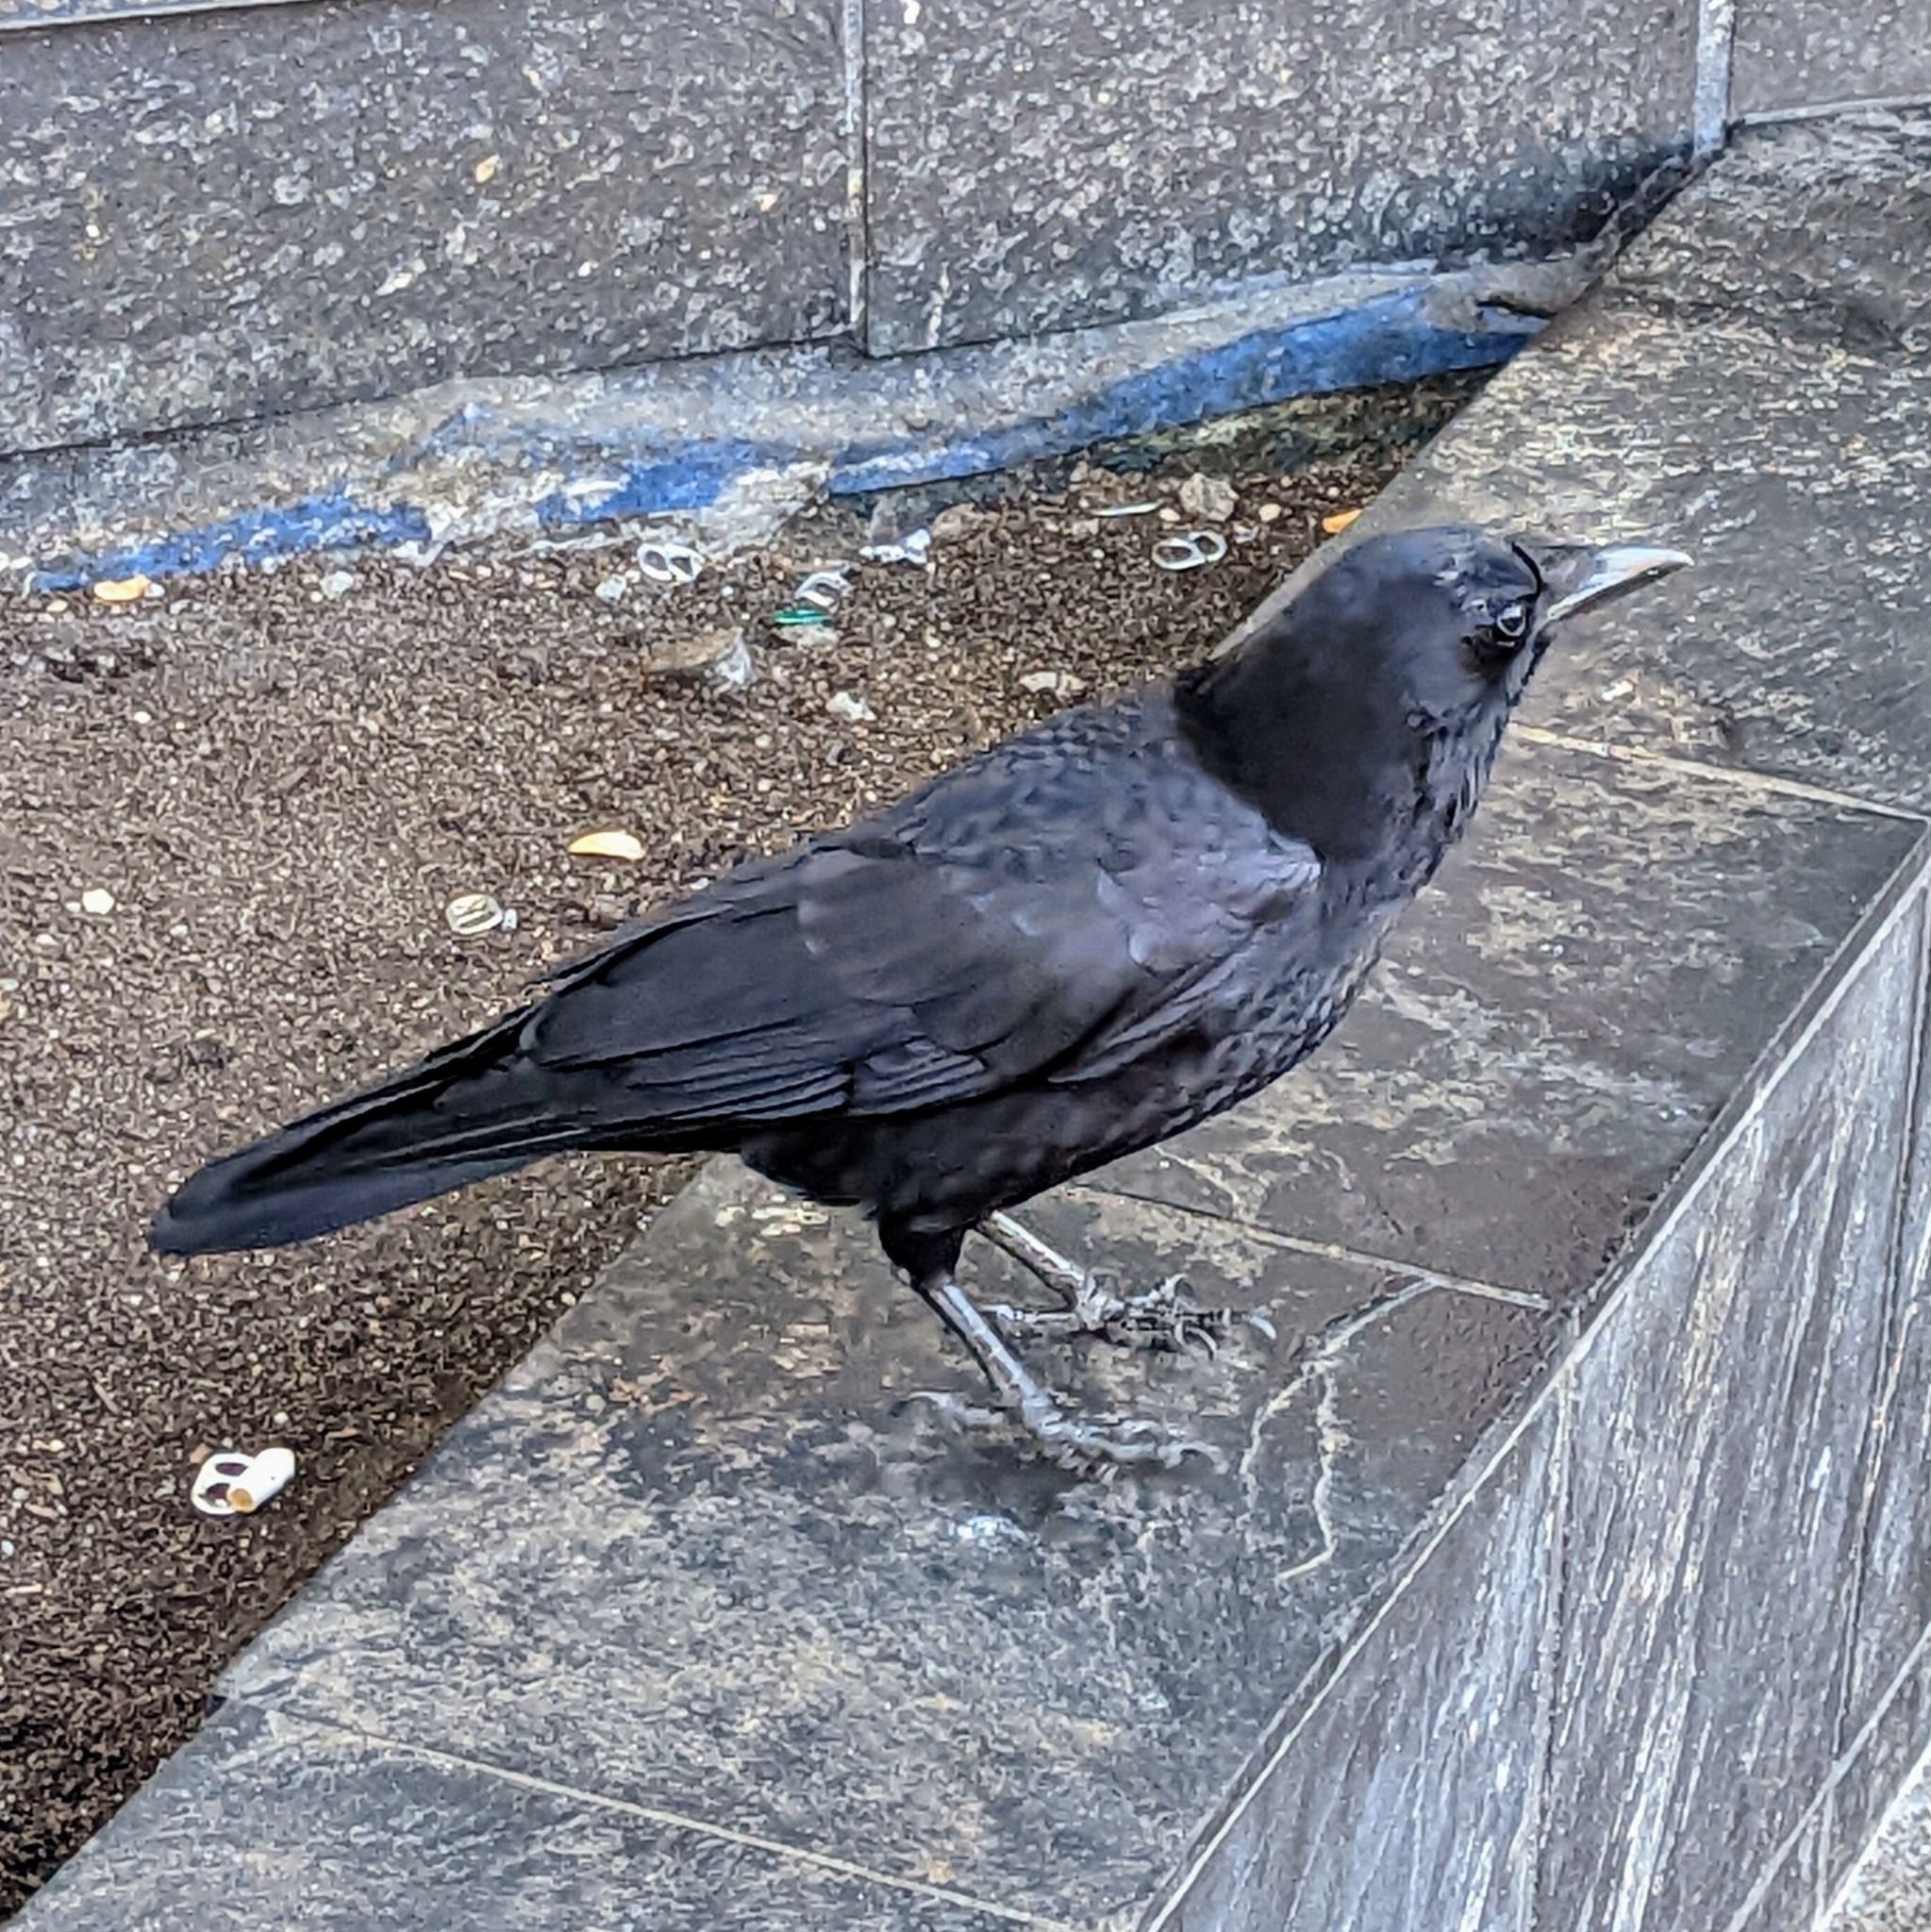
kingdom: Animalia
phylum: Chordata
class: Aves
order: Passeriformes
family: Corvidae
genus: Corvus
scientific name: Corvus brachyrhynchos
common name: American crow
